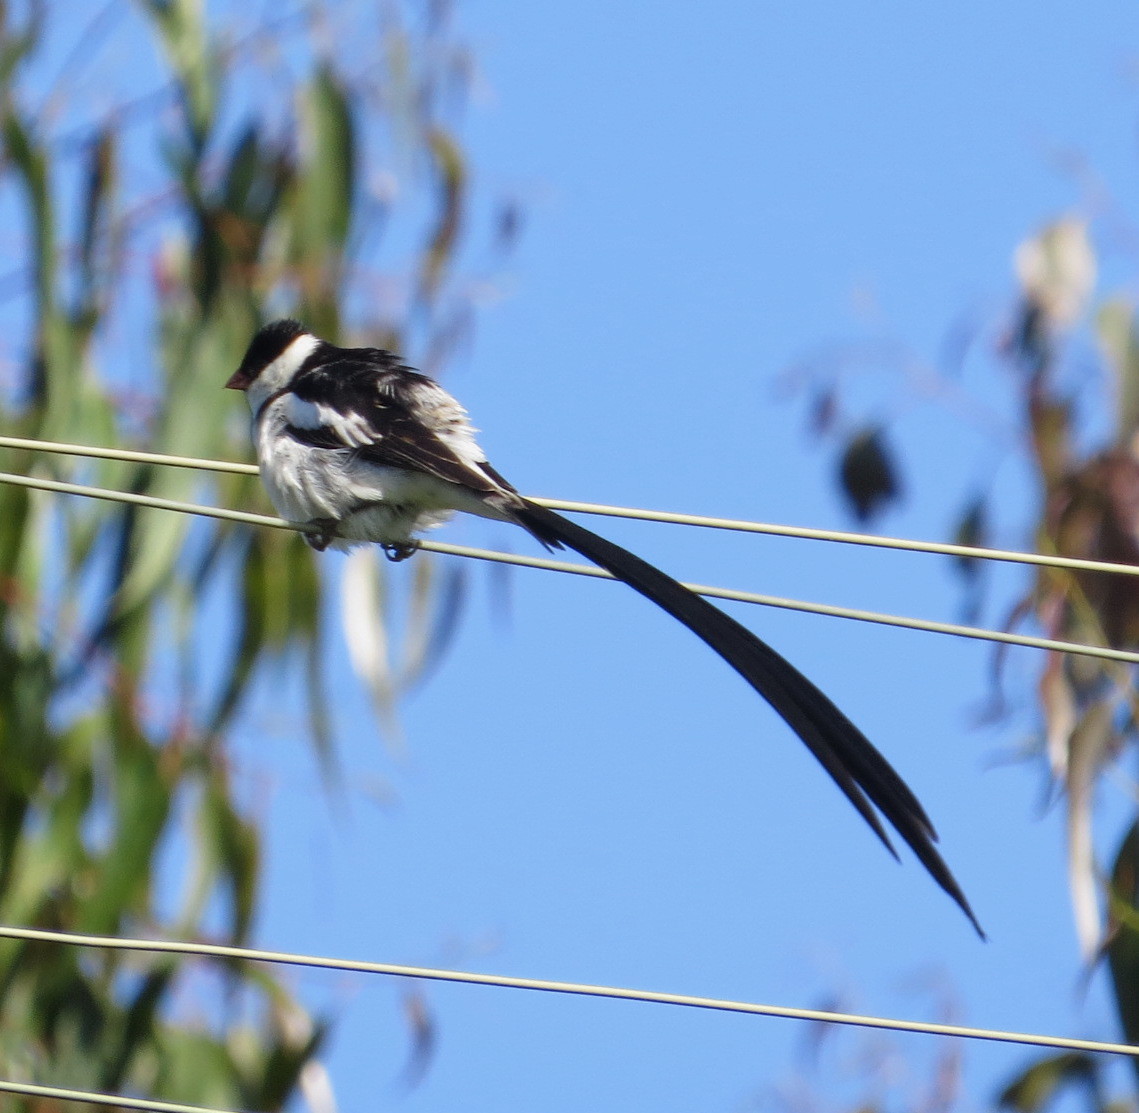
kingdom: Animalia
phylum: Chordata
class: Aves
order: Passeriformes
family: Viduidae
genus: Vidua
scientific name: Vidua macroura
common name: Pin-tailed whydah
